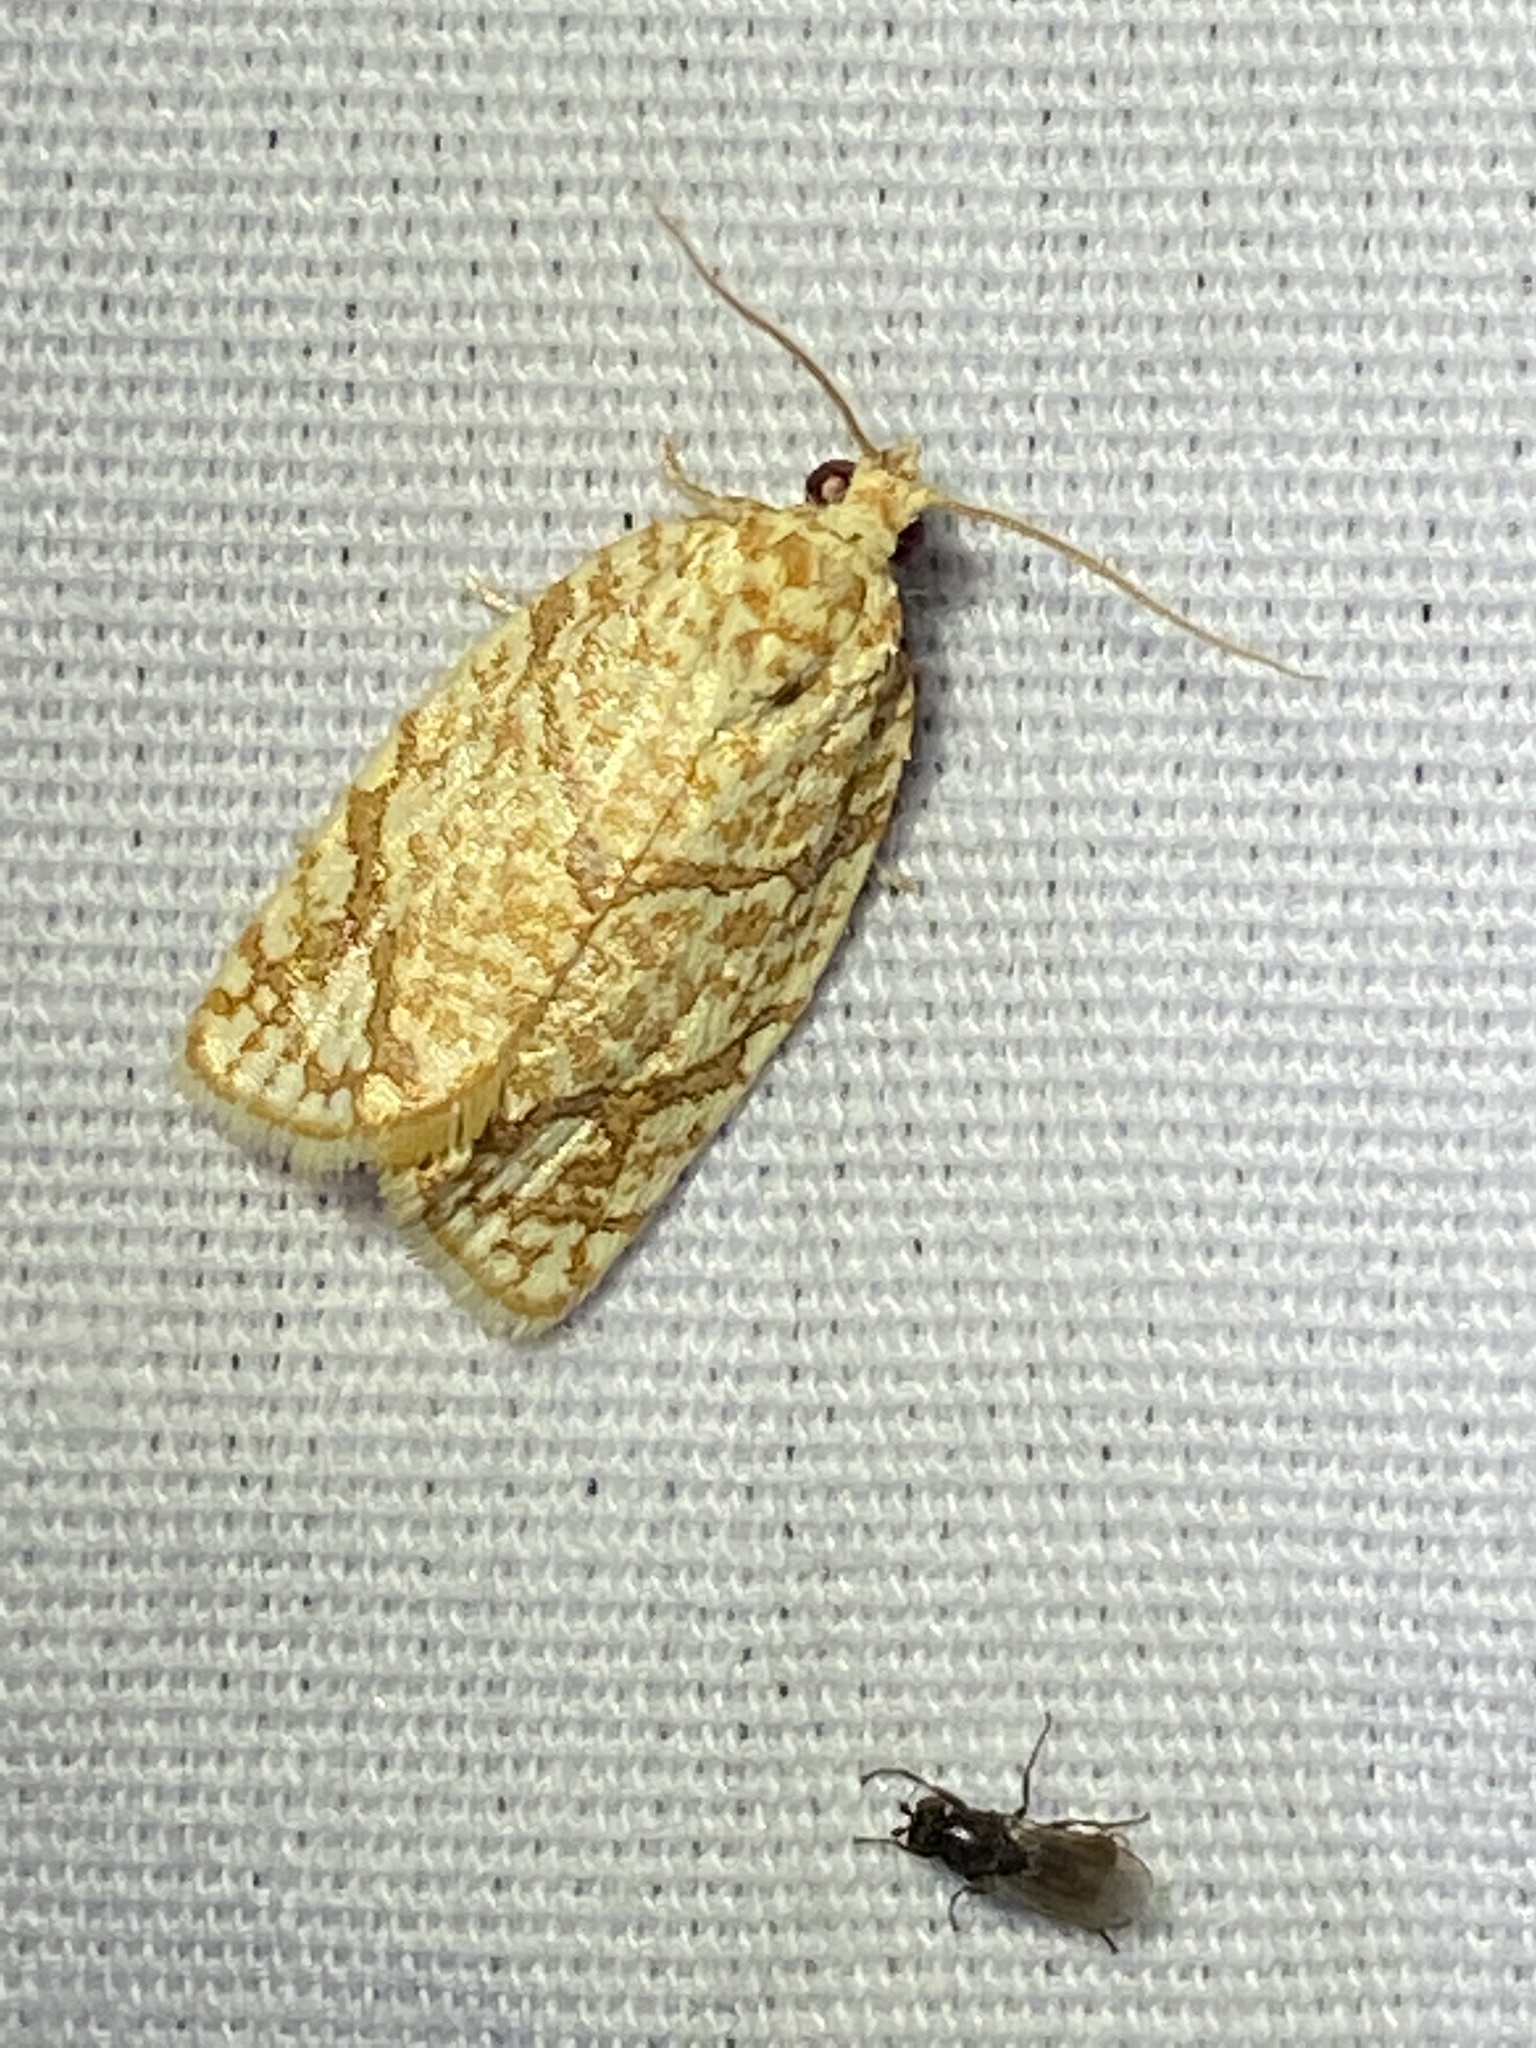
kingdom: Animalia
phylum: Arthropoda
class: Insecta
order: Lepidoptera
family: Tortricidae
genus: Argyrotaenia
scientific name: Argyrotaenia quercifoliana
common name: Yellow-winged oak leafroller moth
